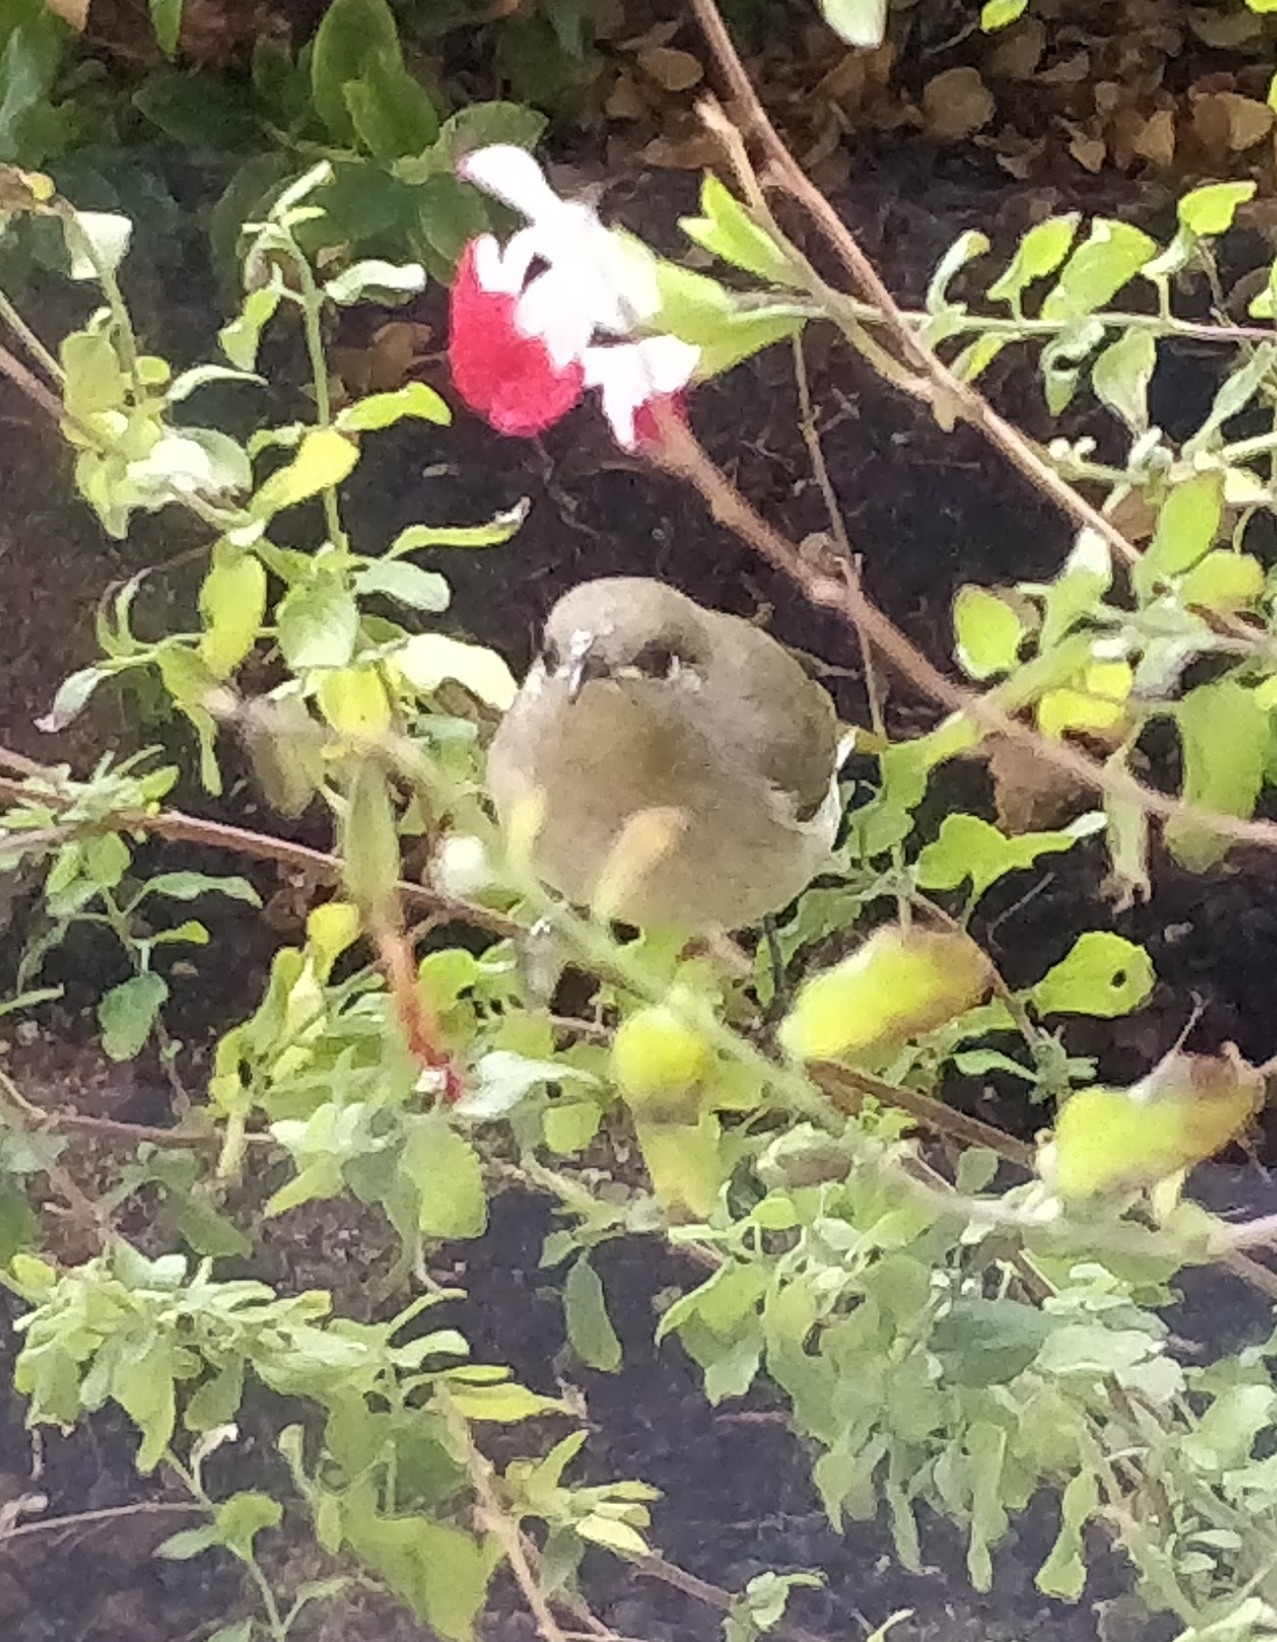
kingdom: Animalia
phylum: Chordata
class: Aves
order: Passeriformes
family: Meliphagidae
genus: Lichmera
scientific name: Lichmera indistincta
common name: Brown honeyeater
